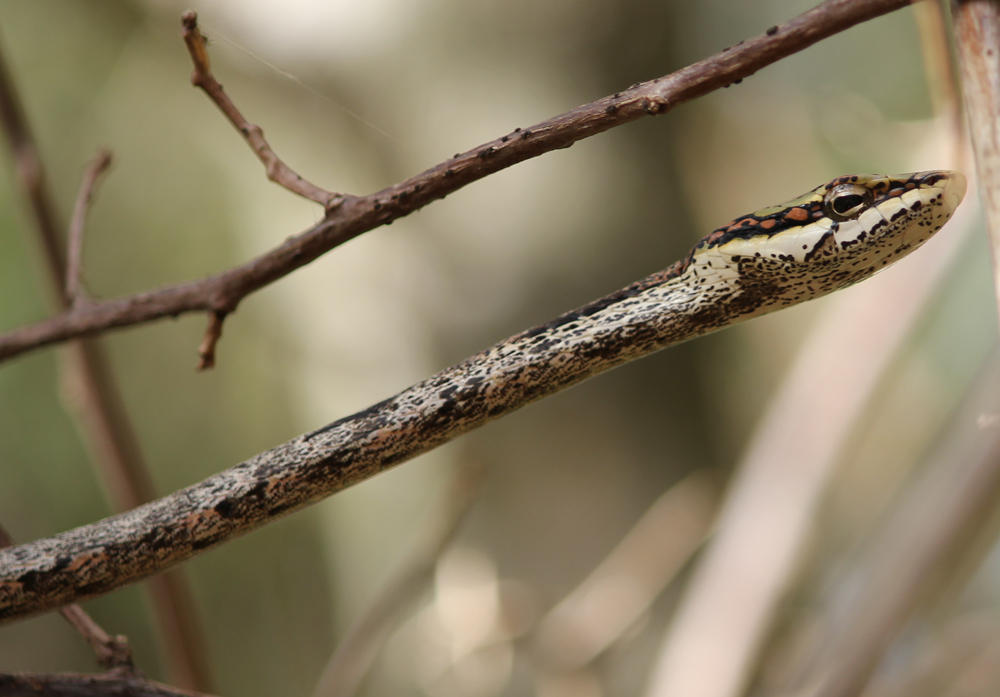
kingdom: Animalia
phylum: Chordata
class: Squamata
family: Colubridae
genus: Thelotornis
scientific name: Thelotornis capensis
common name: Savanna vine snake
